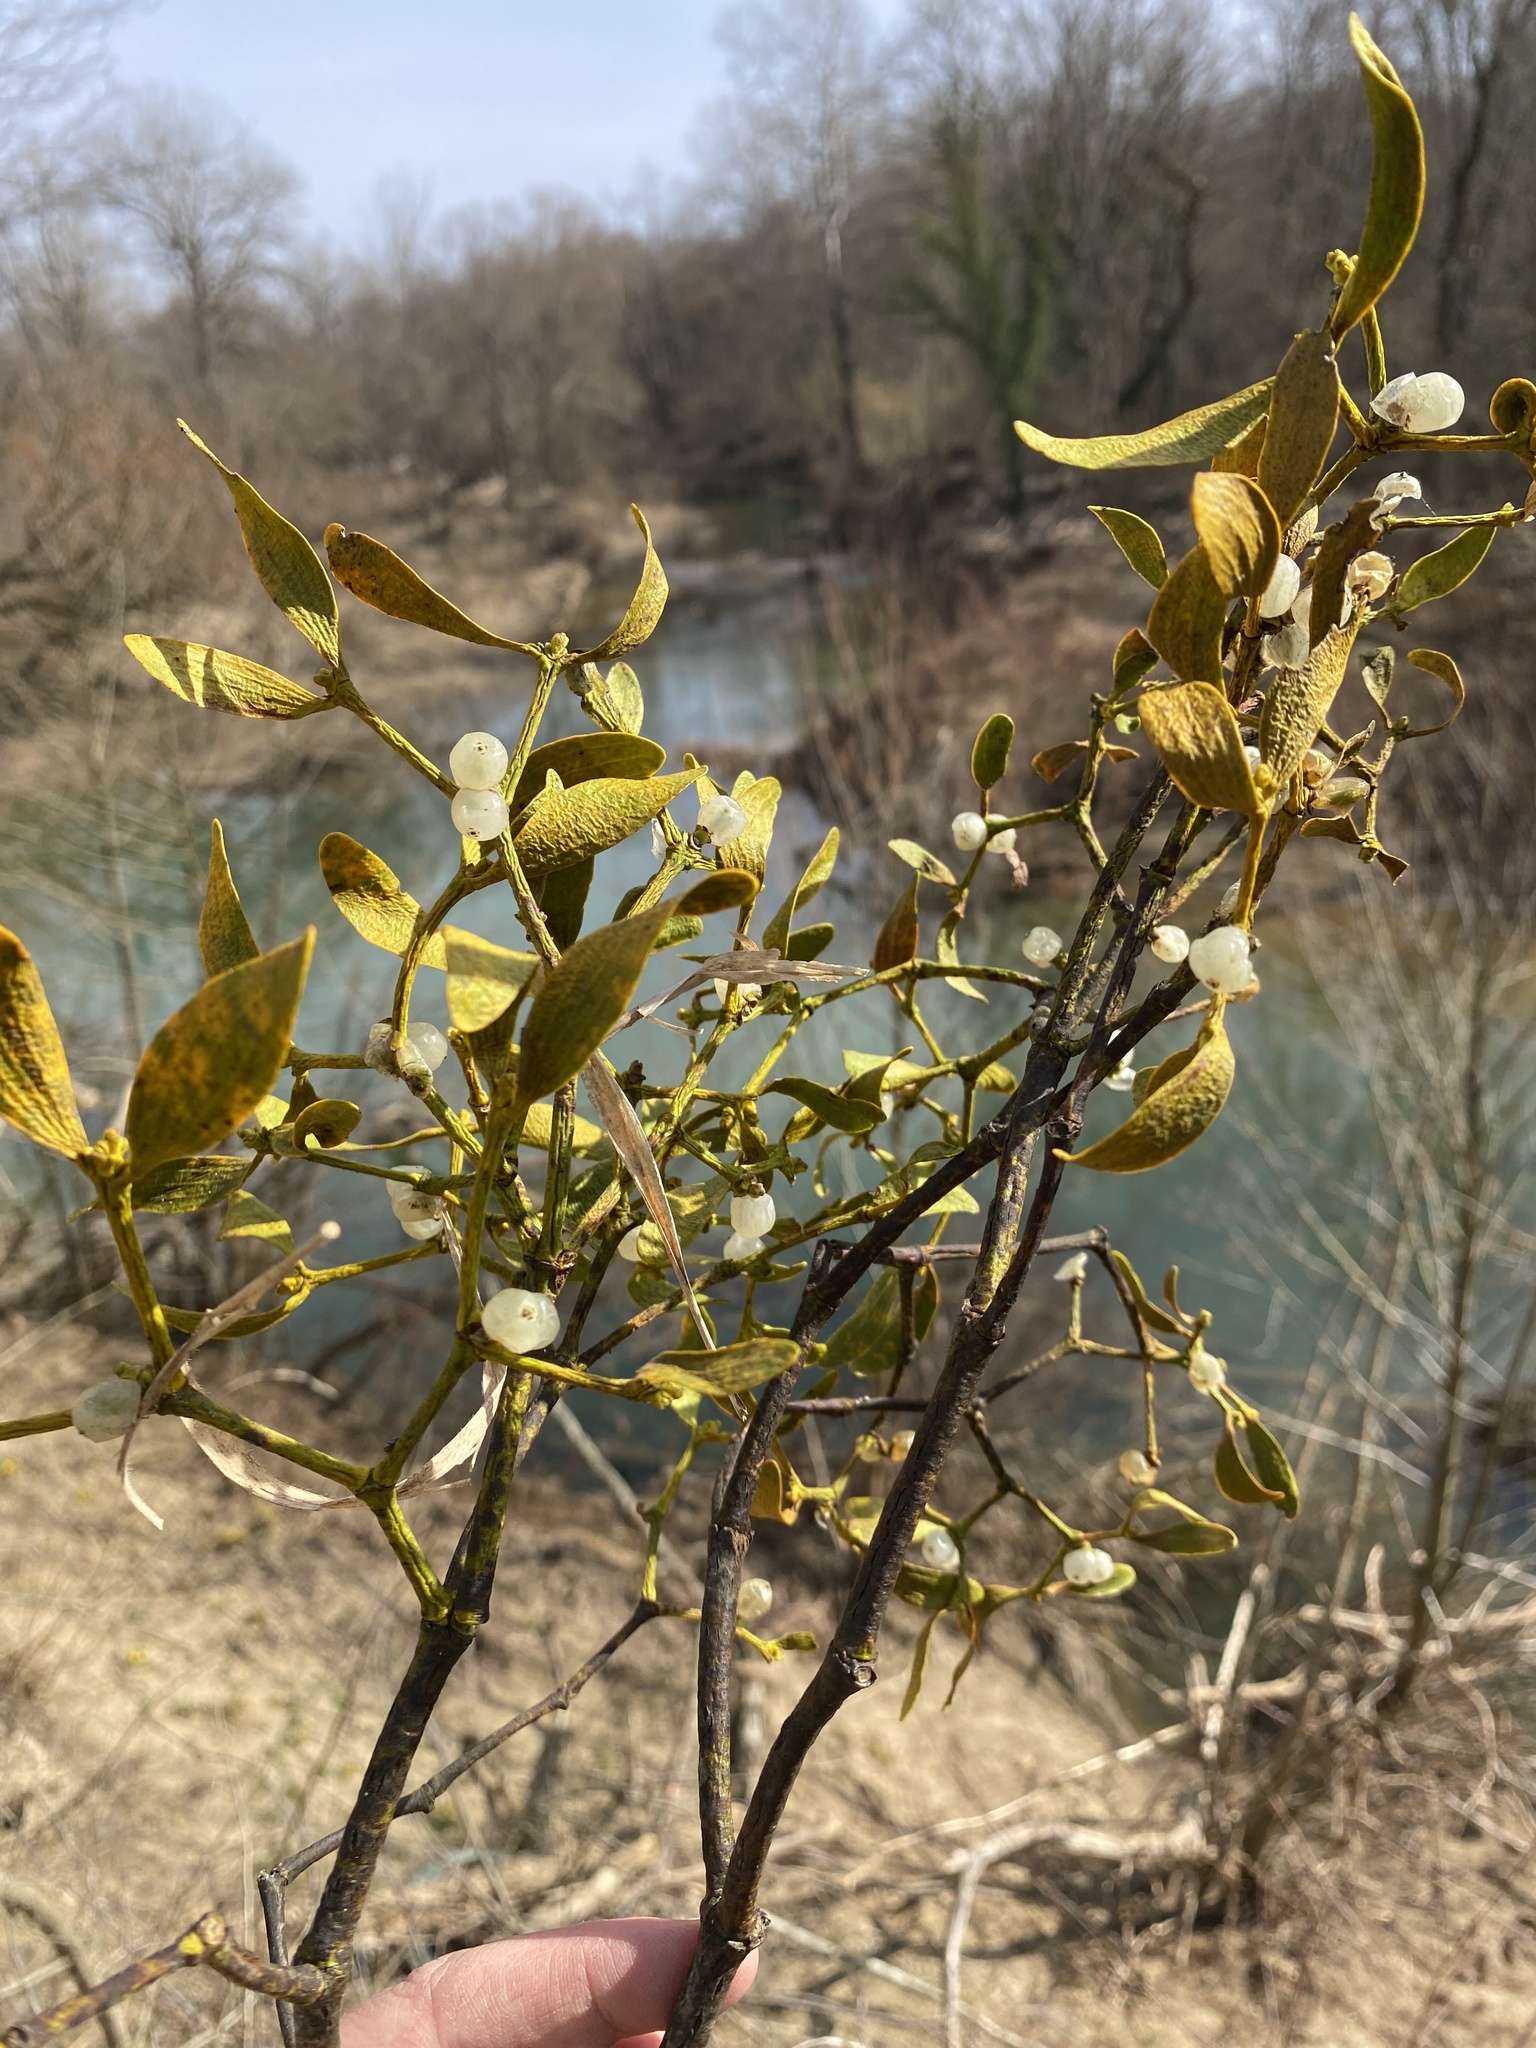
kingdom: Plantae
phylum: Tracheophyta
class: Magnoliopsida
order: Santalales
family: Viscaceae
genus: Viscum
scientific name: Viscum album
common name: Mistletoe
